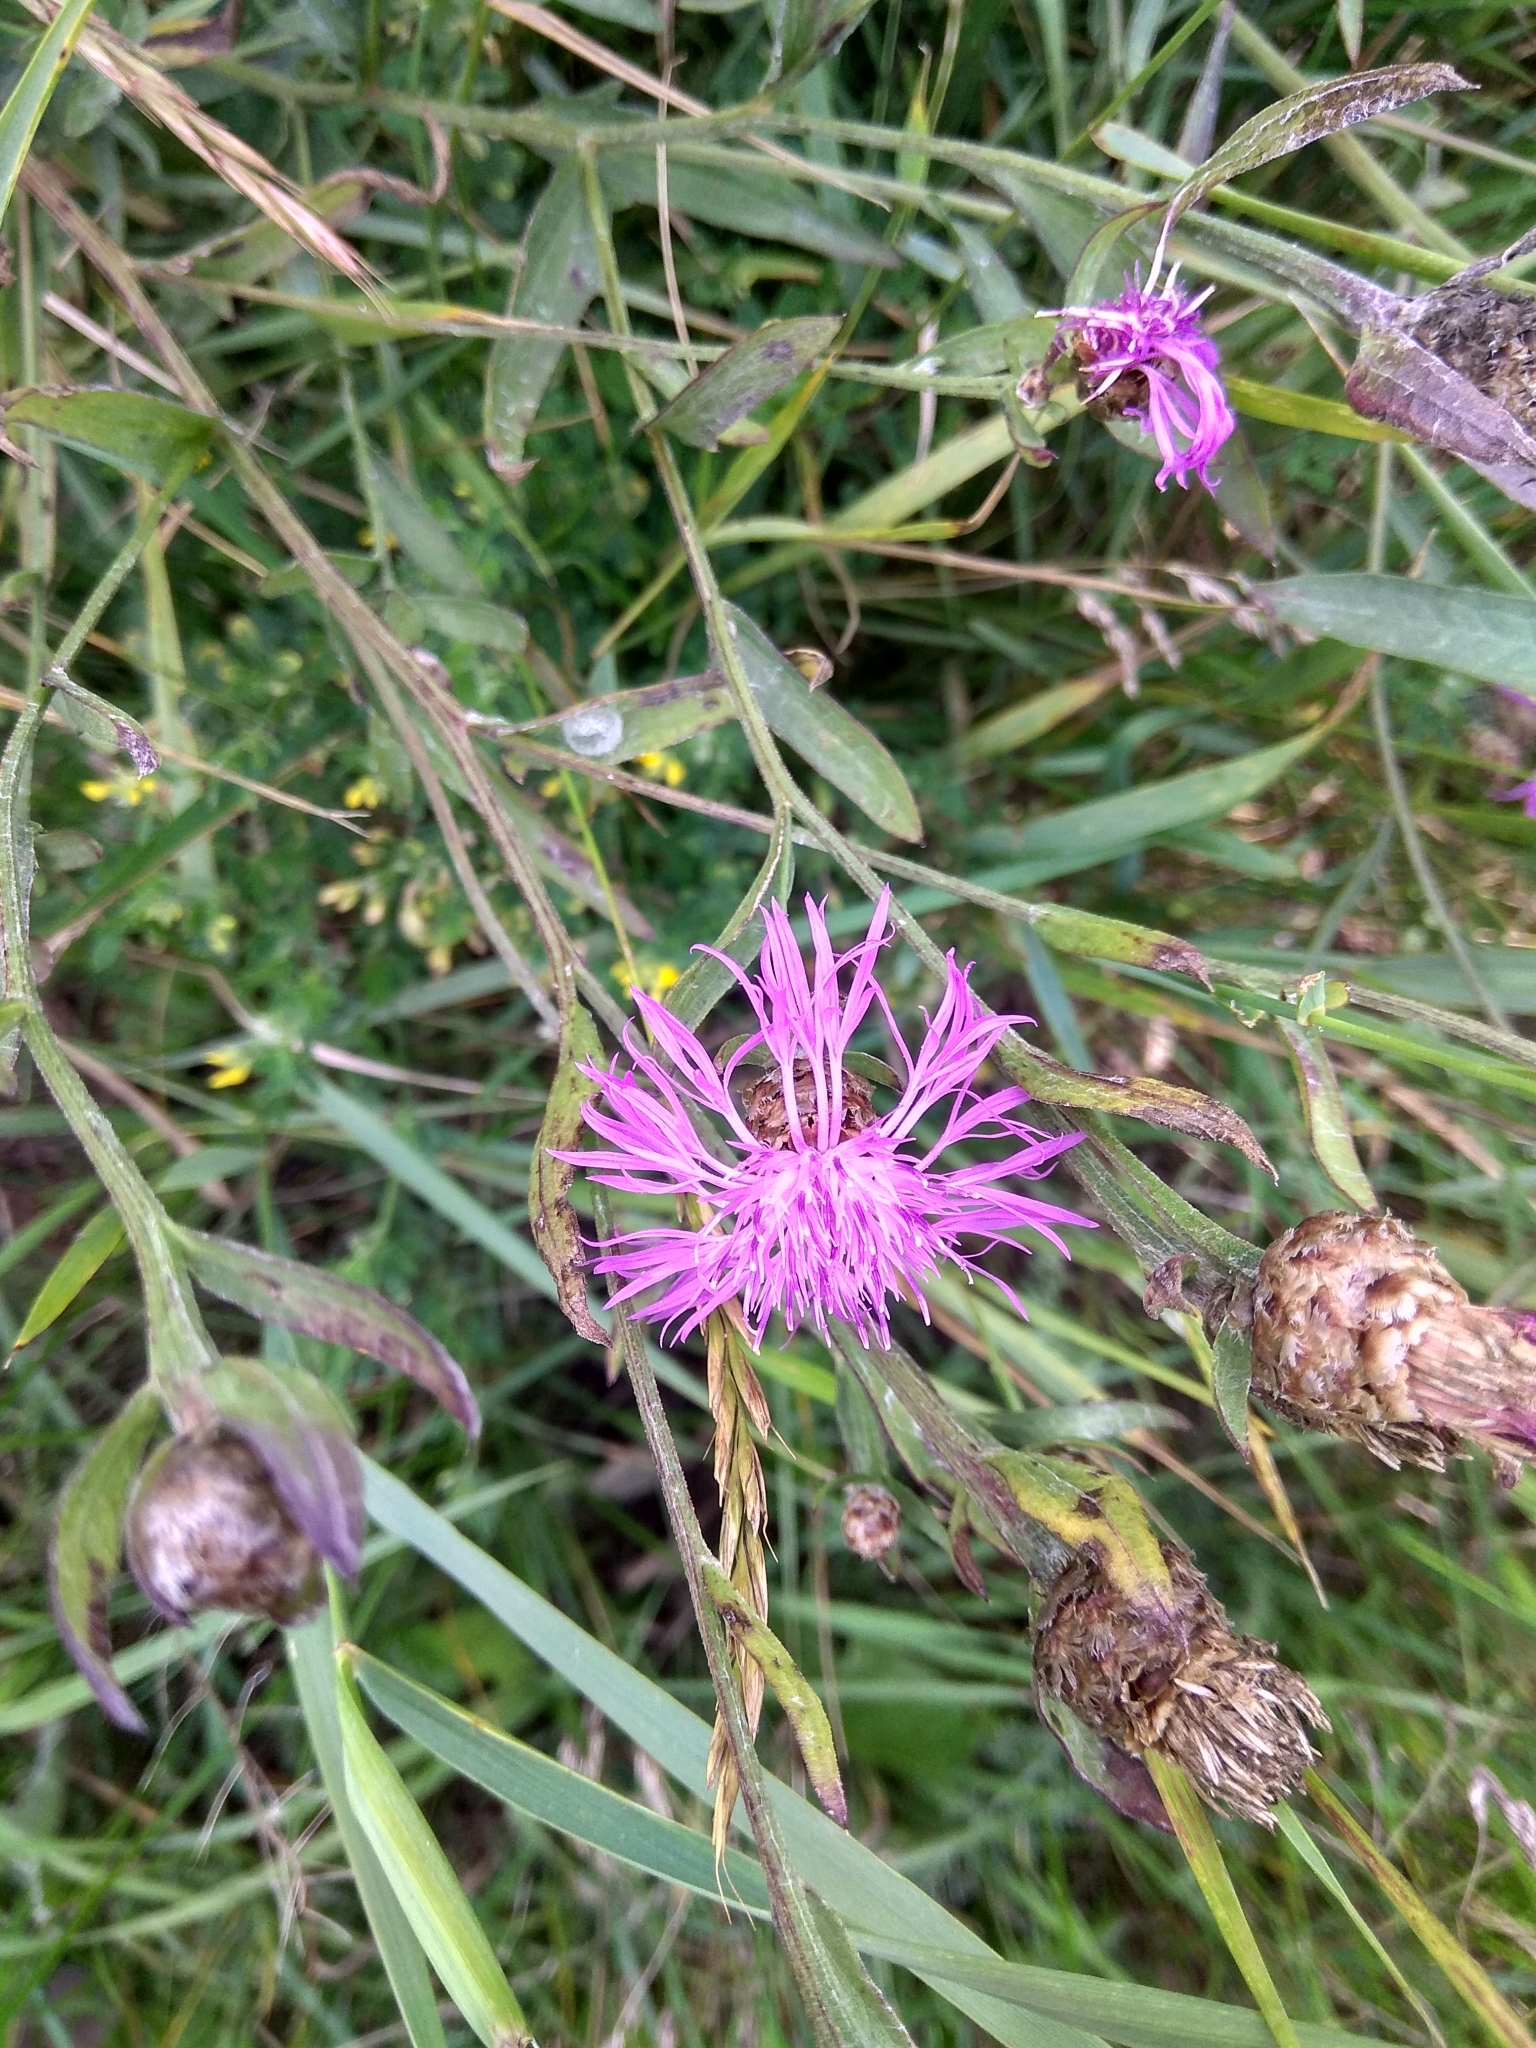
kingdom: Plantae
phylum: Tracheophyta
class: Magnoliopsida
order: Asterales
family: Asteraceae
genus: Centaurea
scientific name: Centaurea jacea
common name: Brown knapweed
